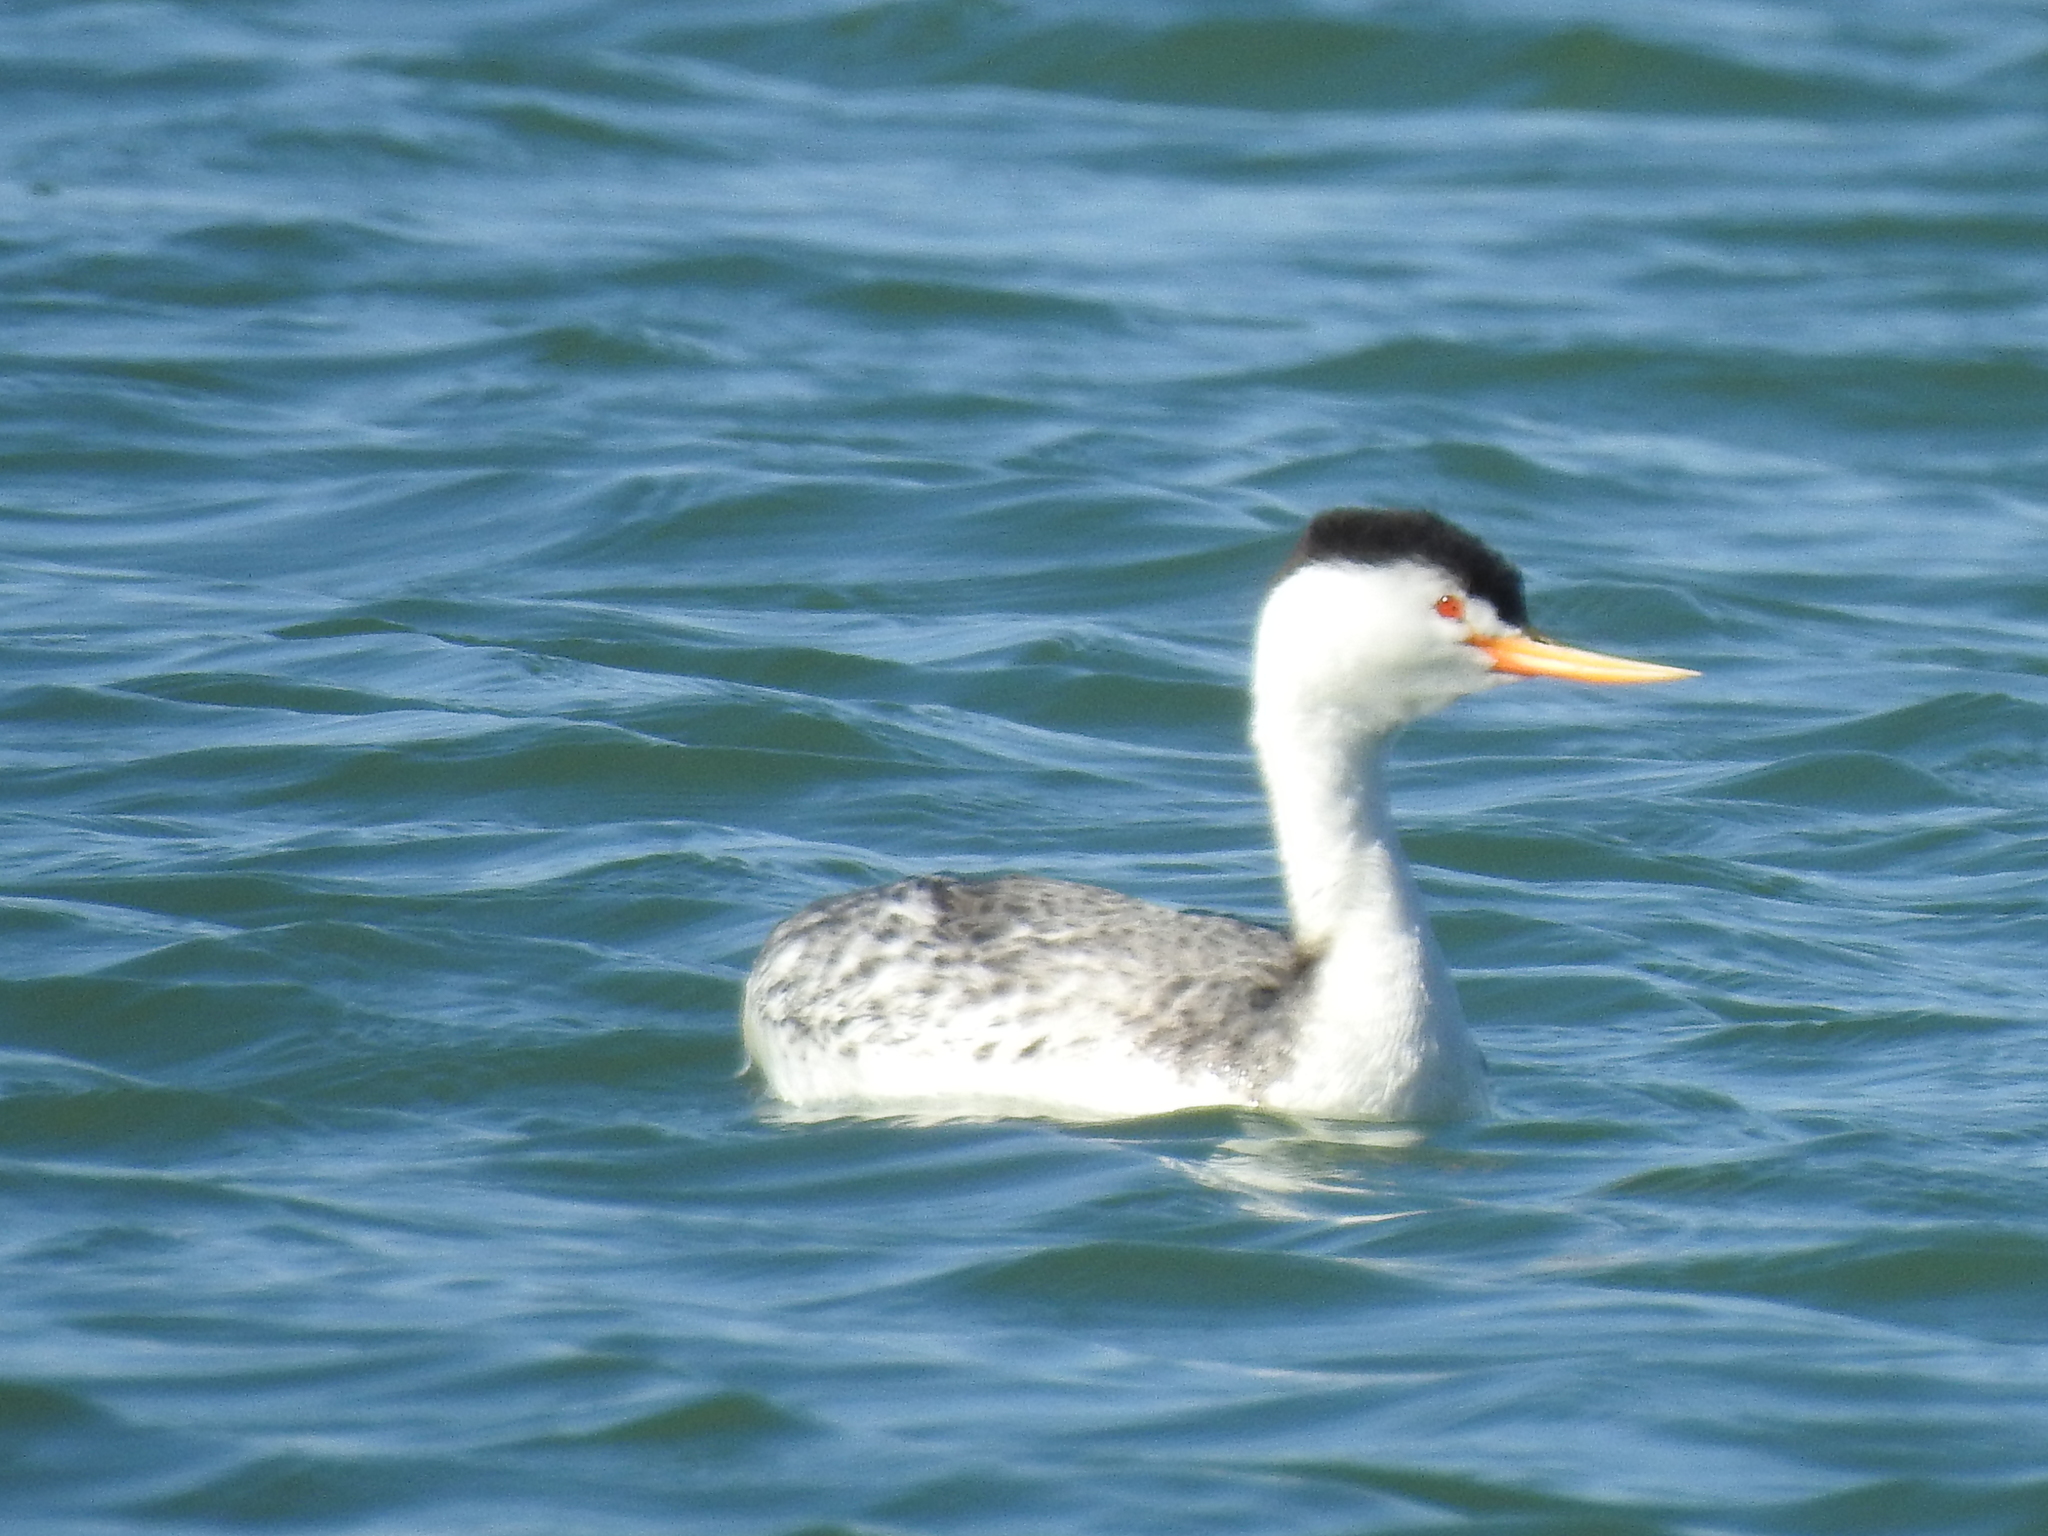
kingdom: Animalia
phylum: Chordata
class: Aves
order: Podicipediformes
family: Podicipedidae
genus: Aechmophorus
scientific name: Aechmophorus clarkii
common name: Clark's grebe
